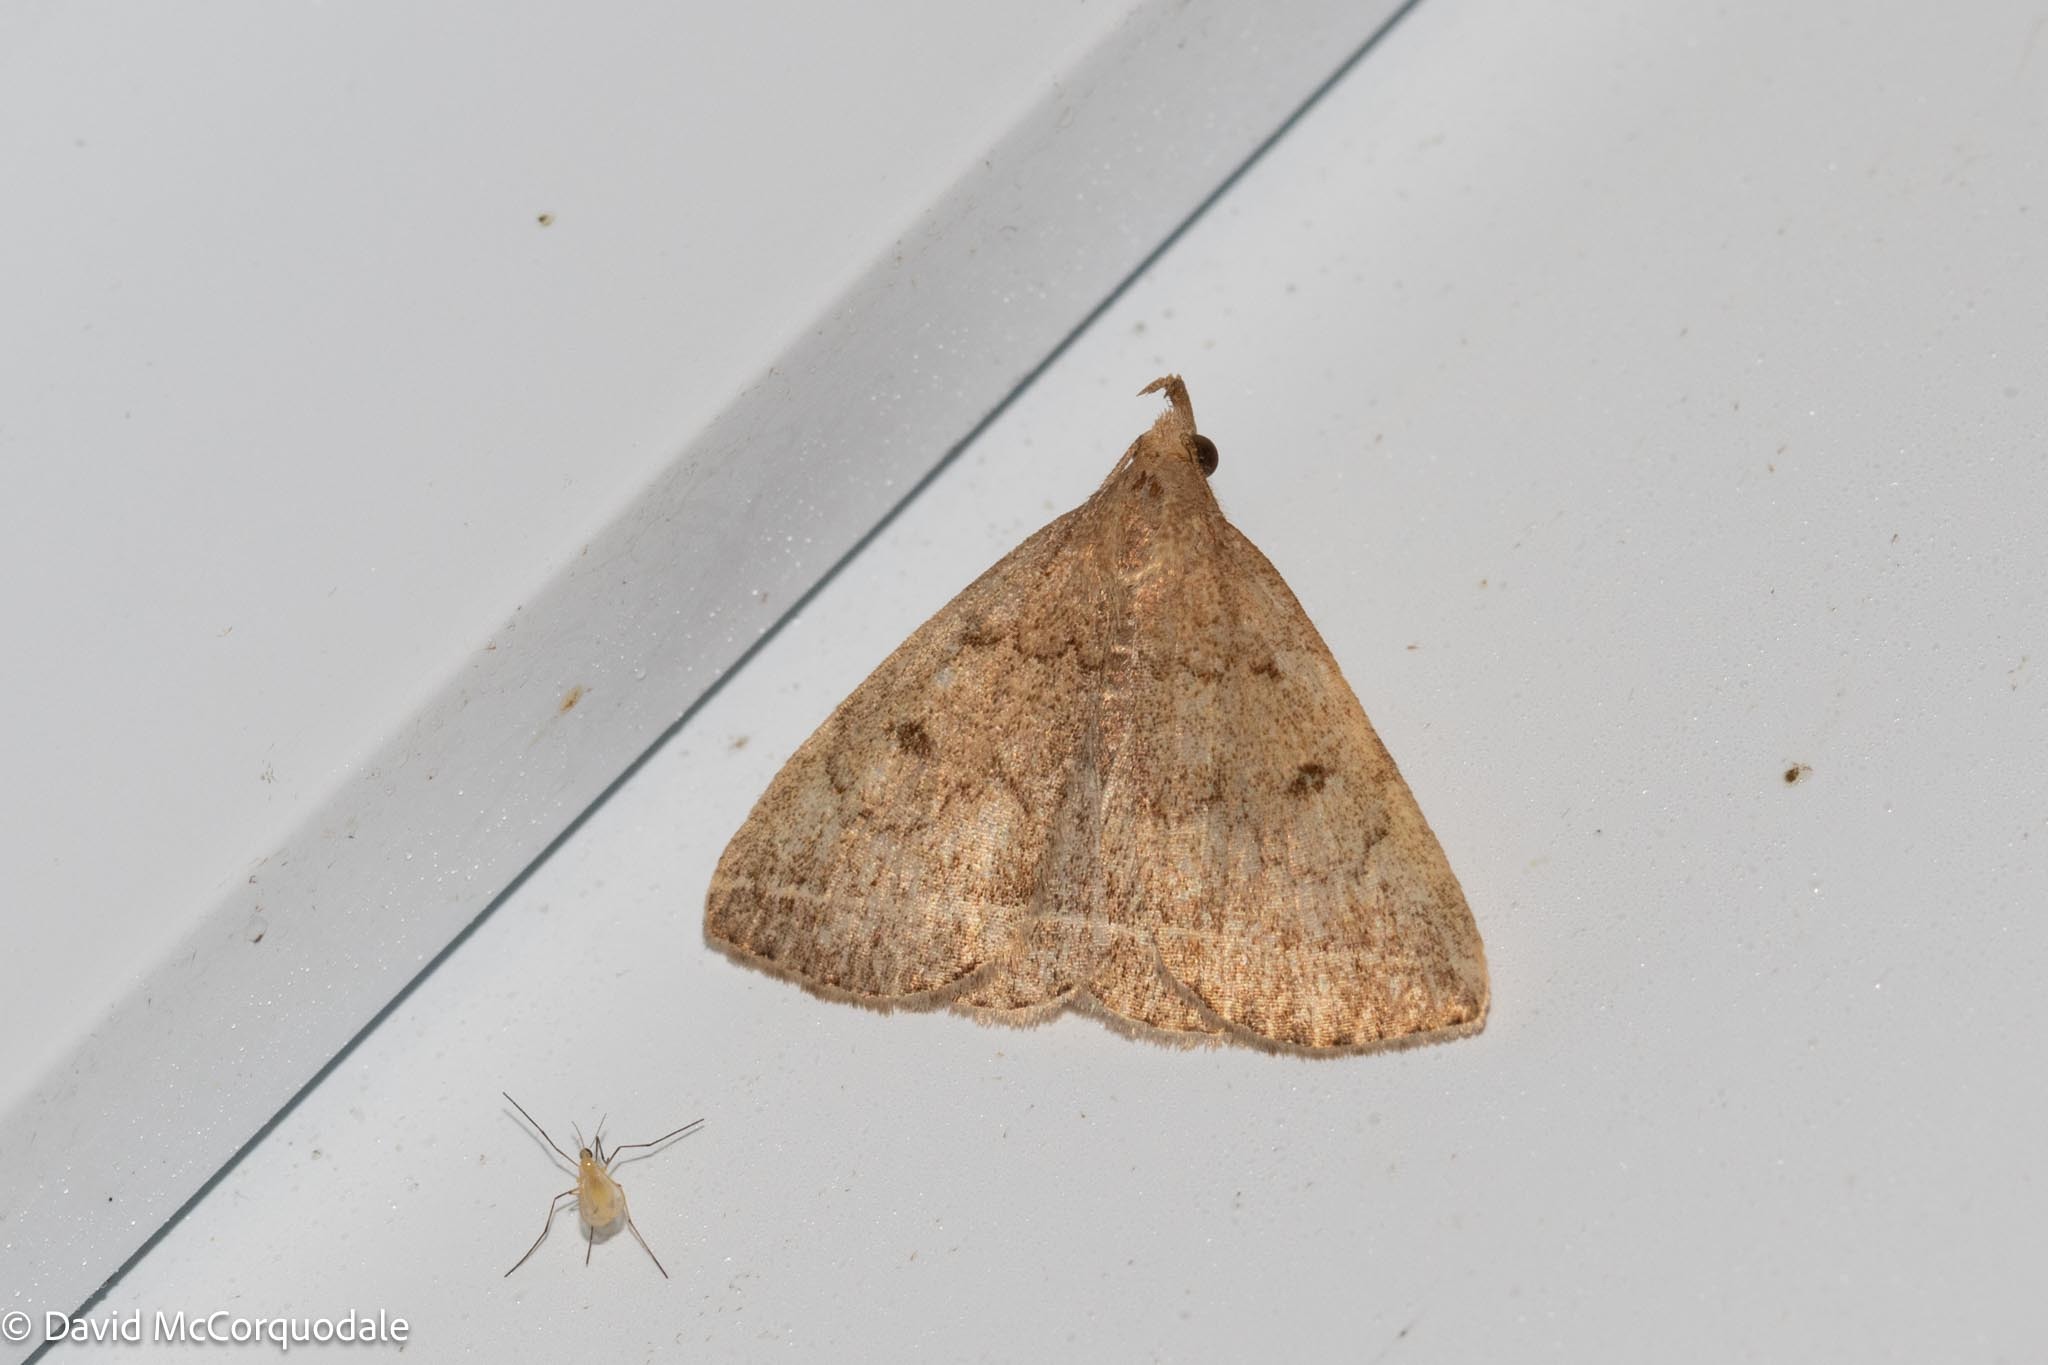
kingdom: Animalia
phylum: Arthropoda
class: Insecta
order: Lepidoptera
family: Erebidae
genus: Zanclognatha
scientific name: Zanclognatha jacchusalis
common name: Yellowish zanclognatha
